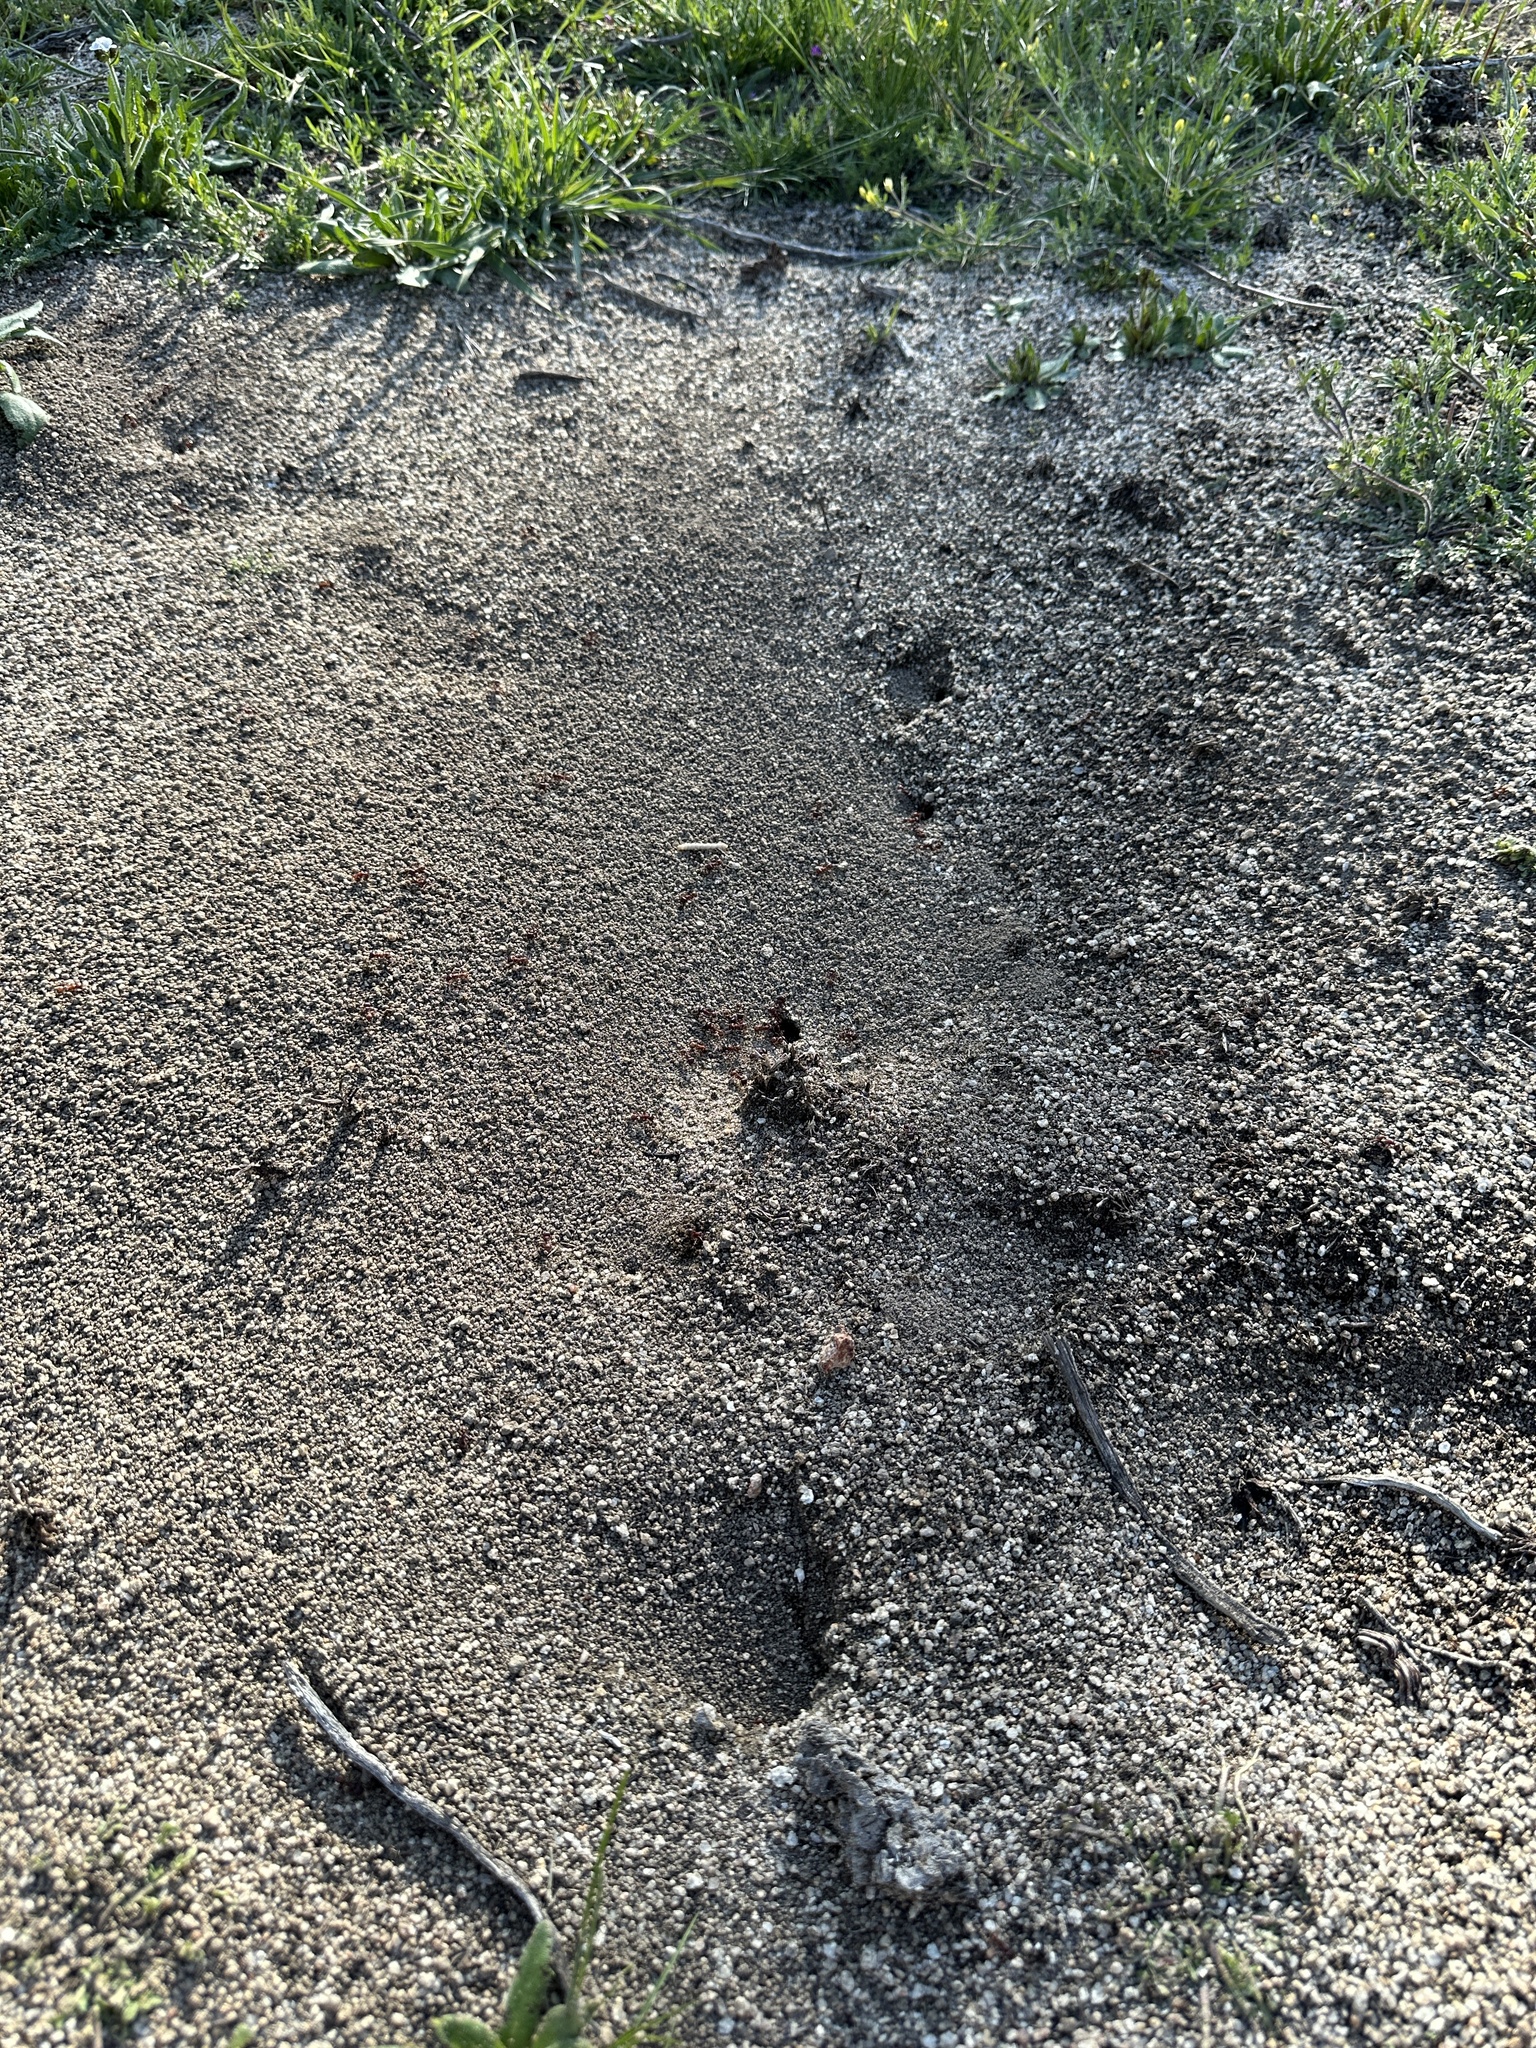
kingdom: Animalia
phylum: Arthropoda
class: Insecta
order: Hymenoptera
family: Formicidae
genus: Pogonomyrmex
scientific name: Pogonomyrmex rugosus
